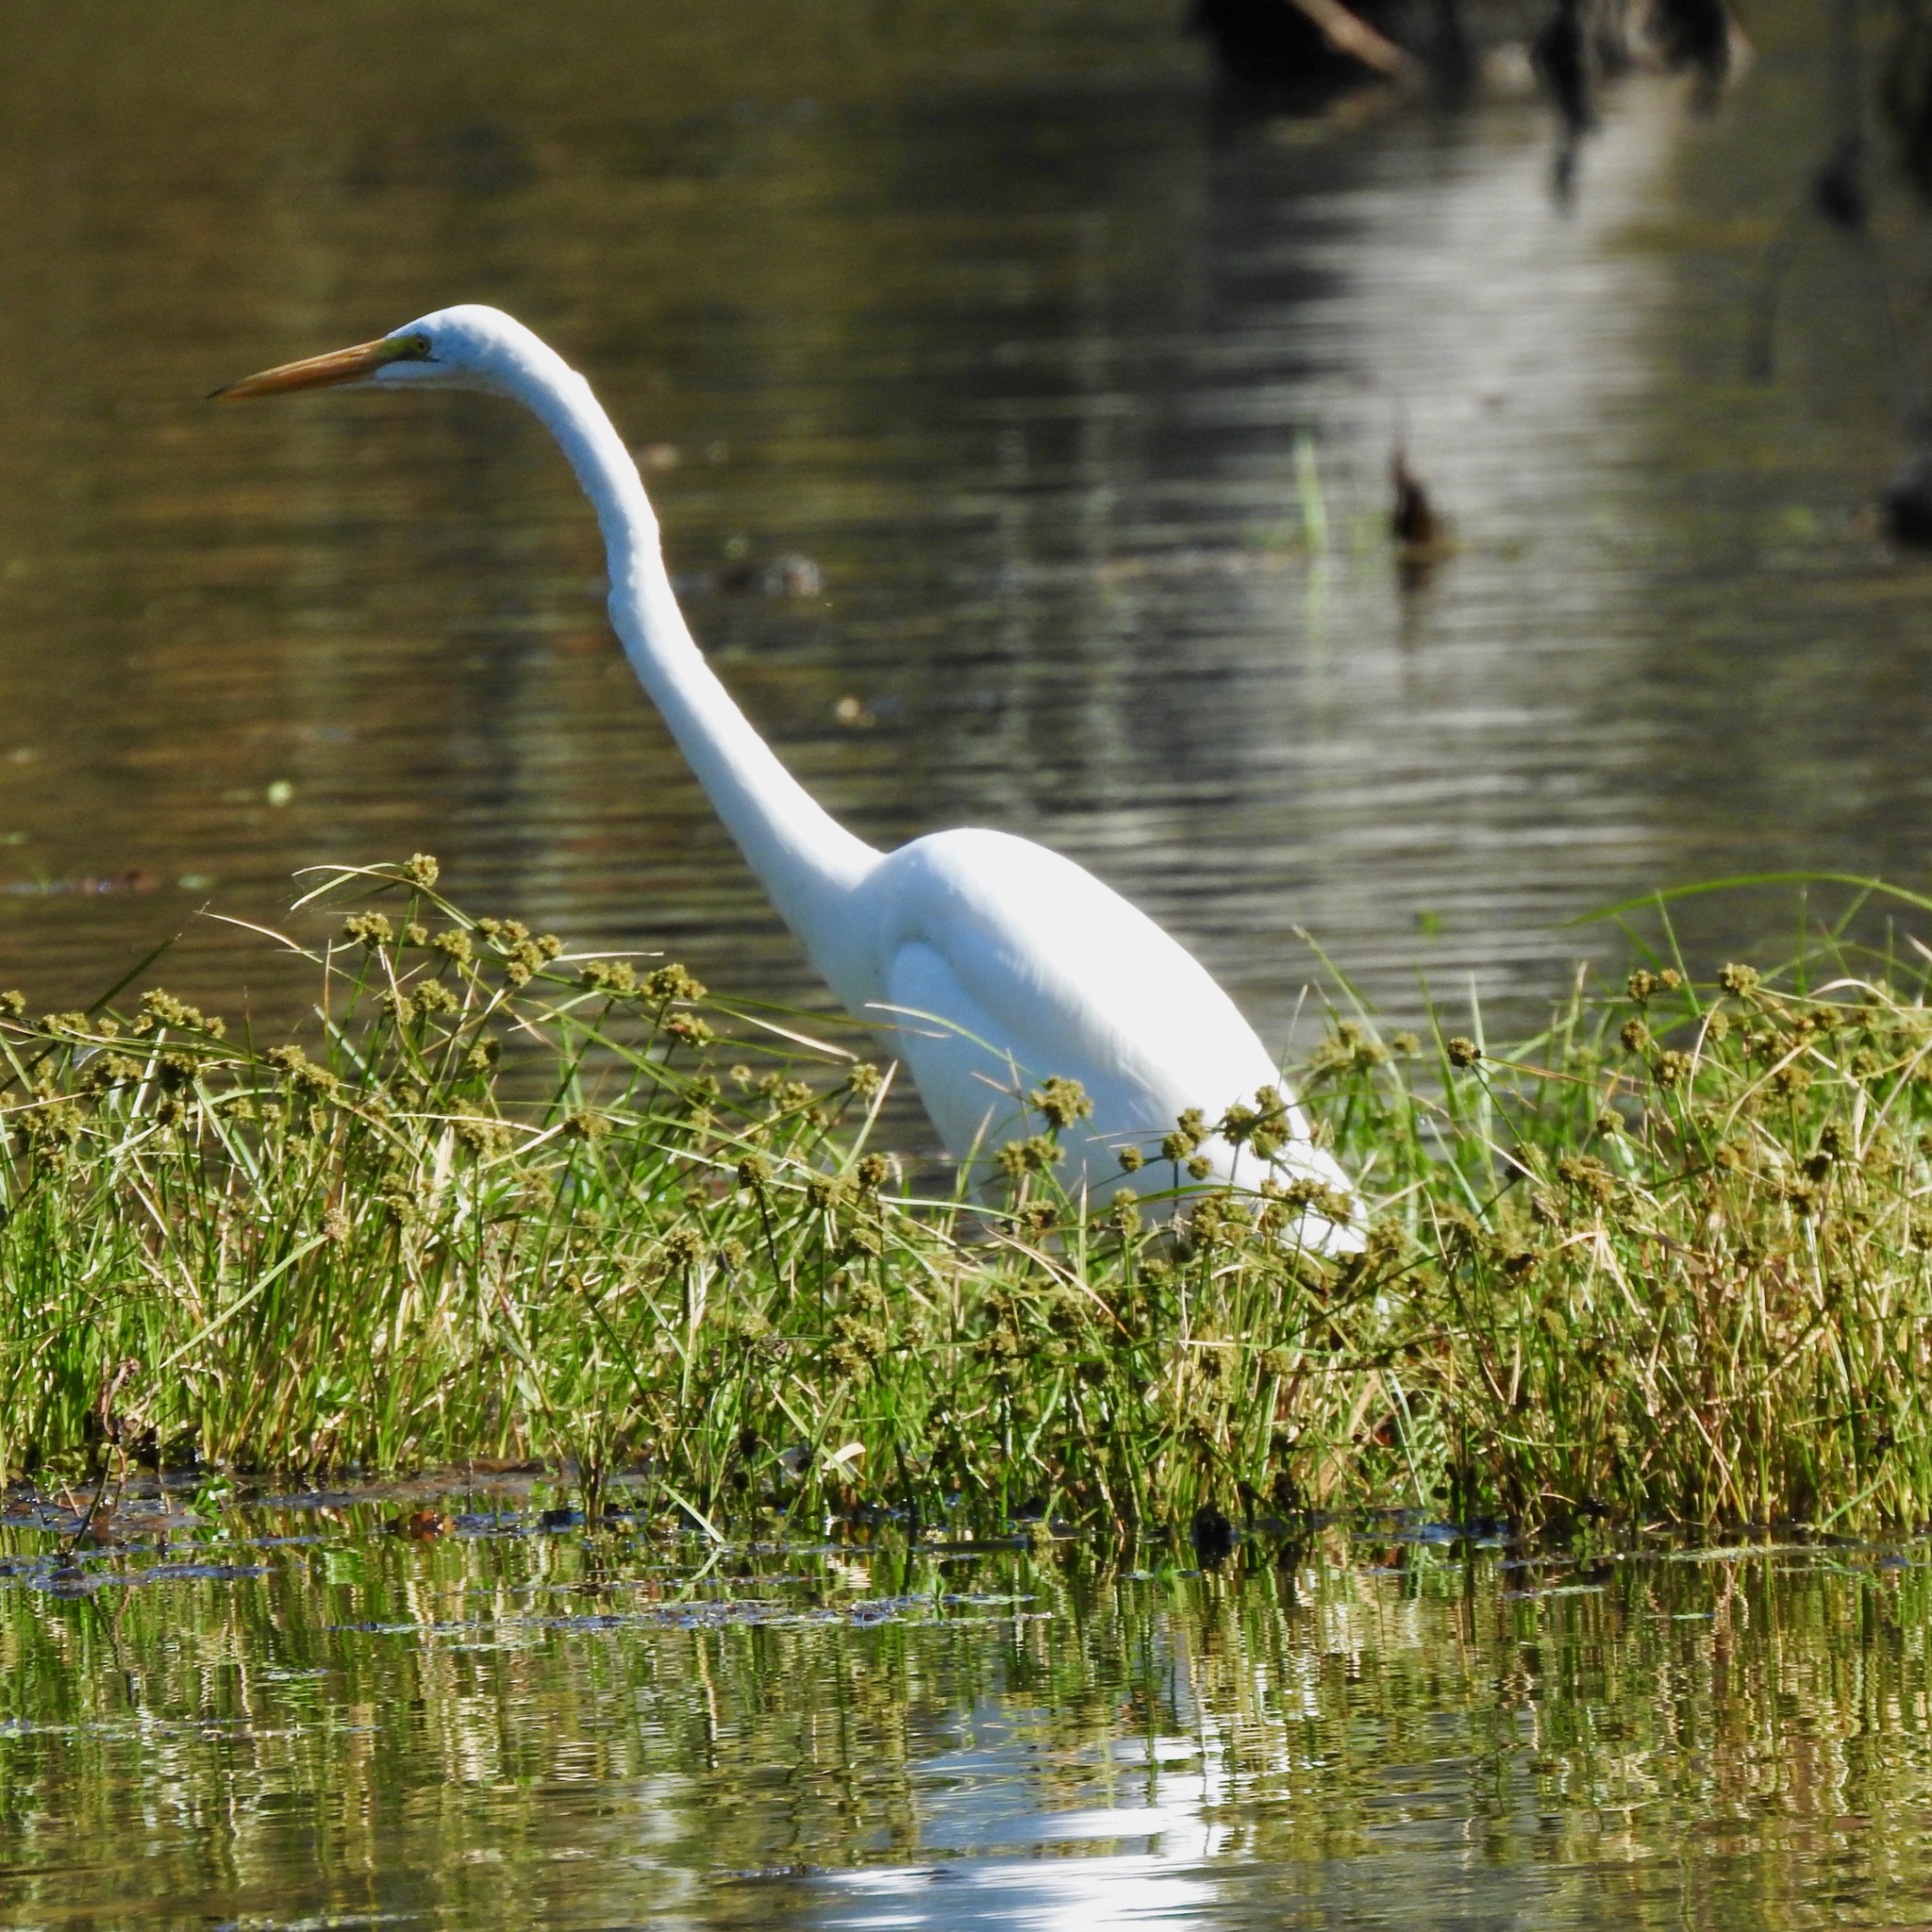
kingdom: Animalia
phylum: Chordata
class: Aves
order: Pelecaniformes
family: Ardeidae
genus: Ardea
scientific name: Ardea alba
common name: Great egret
